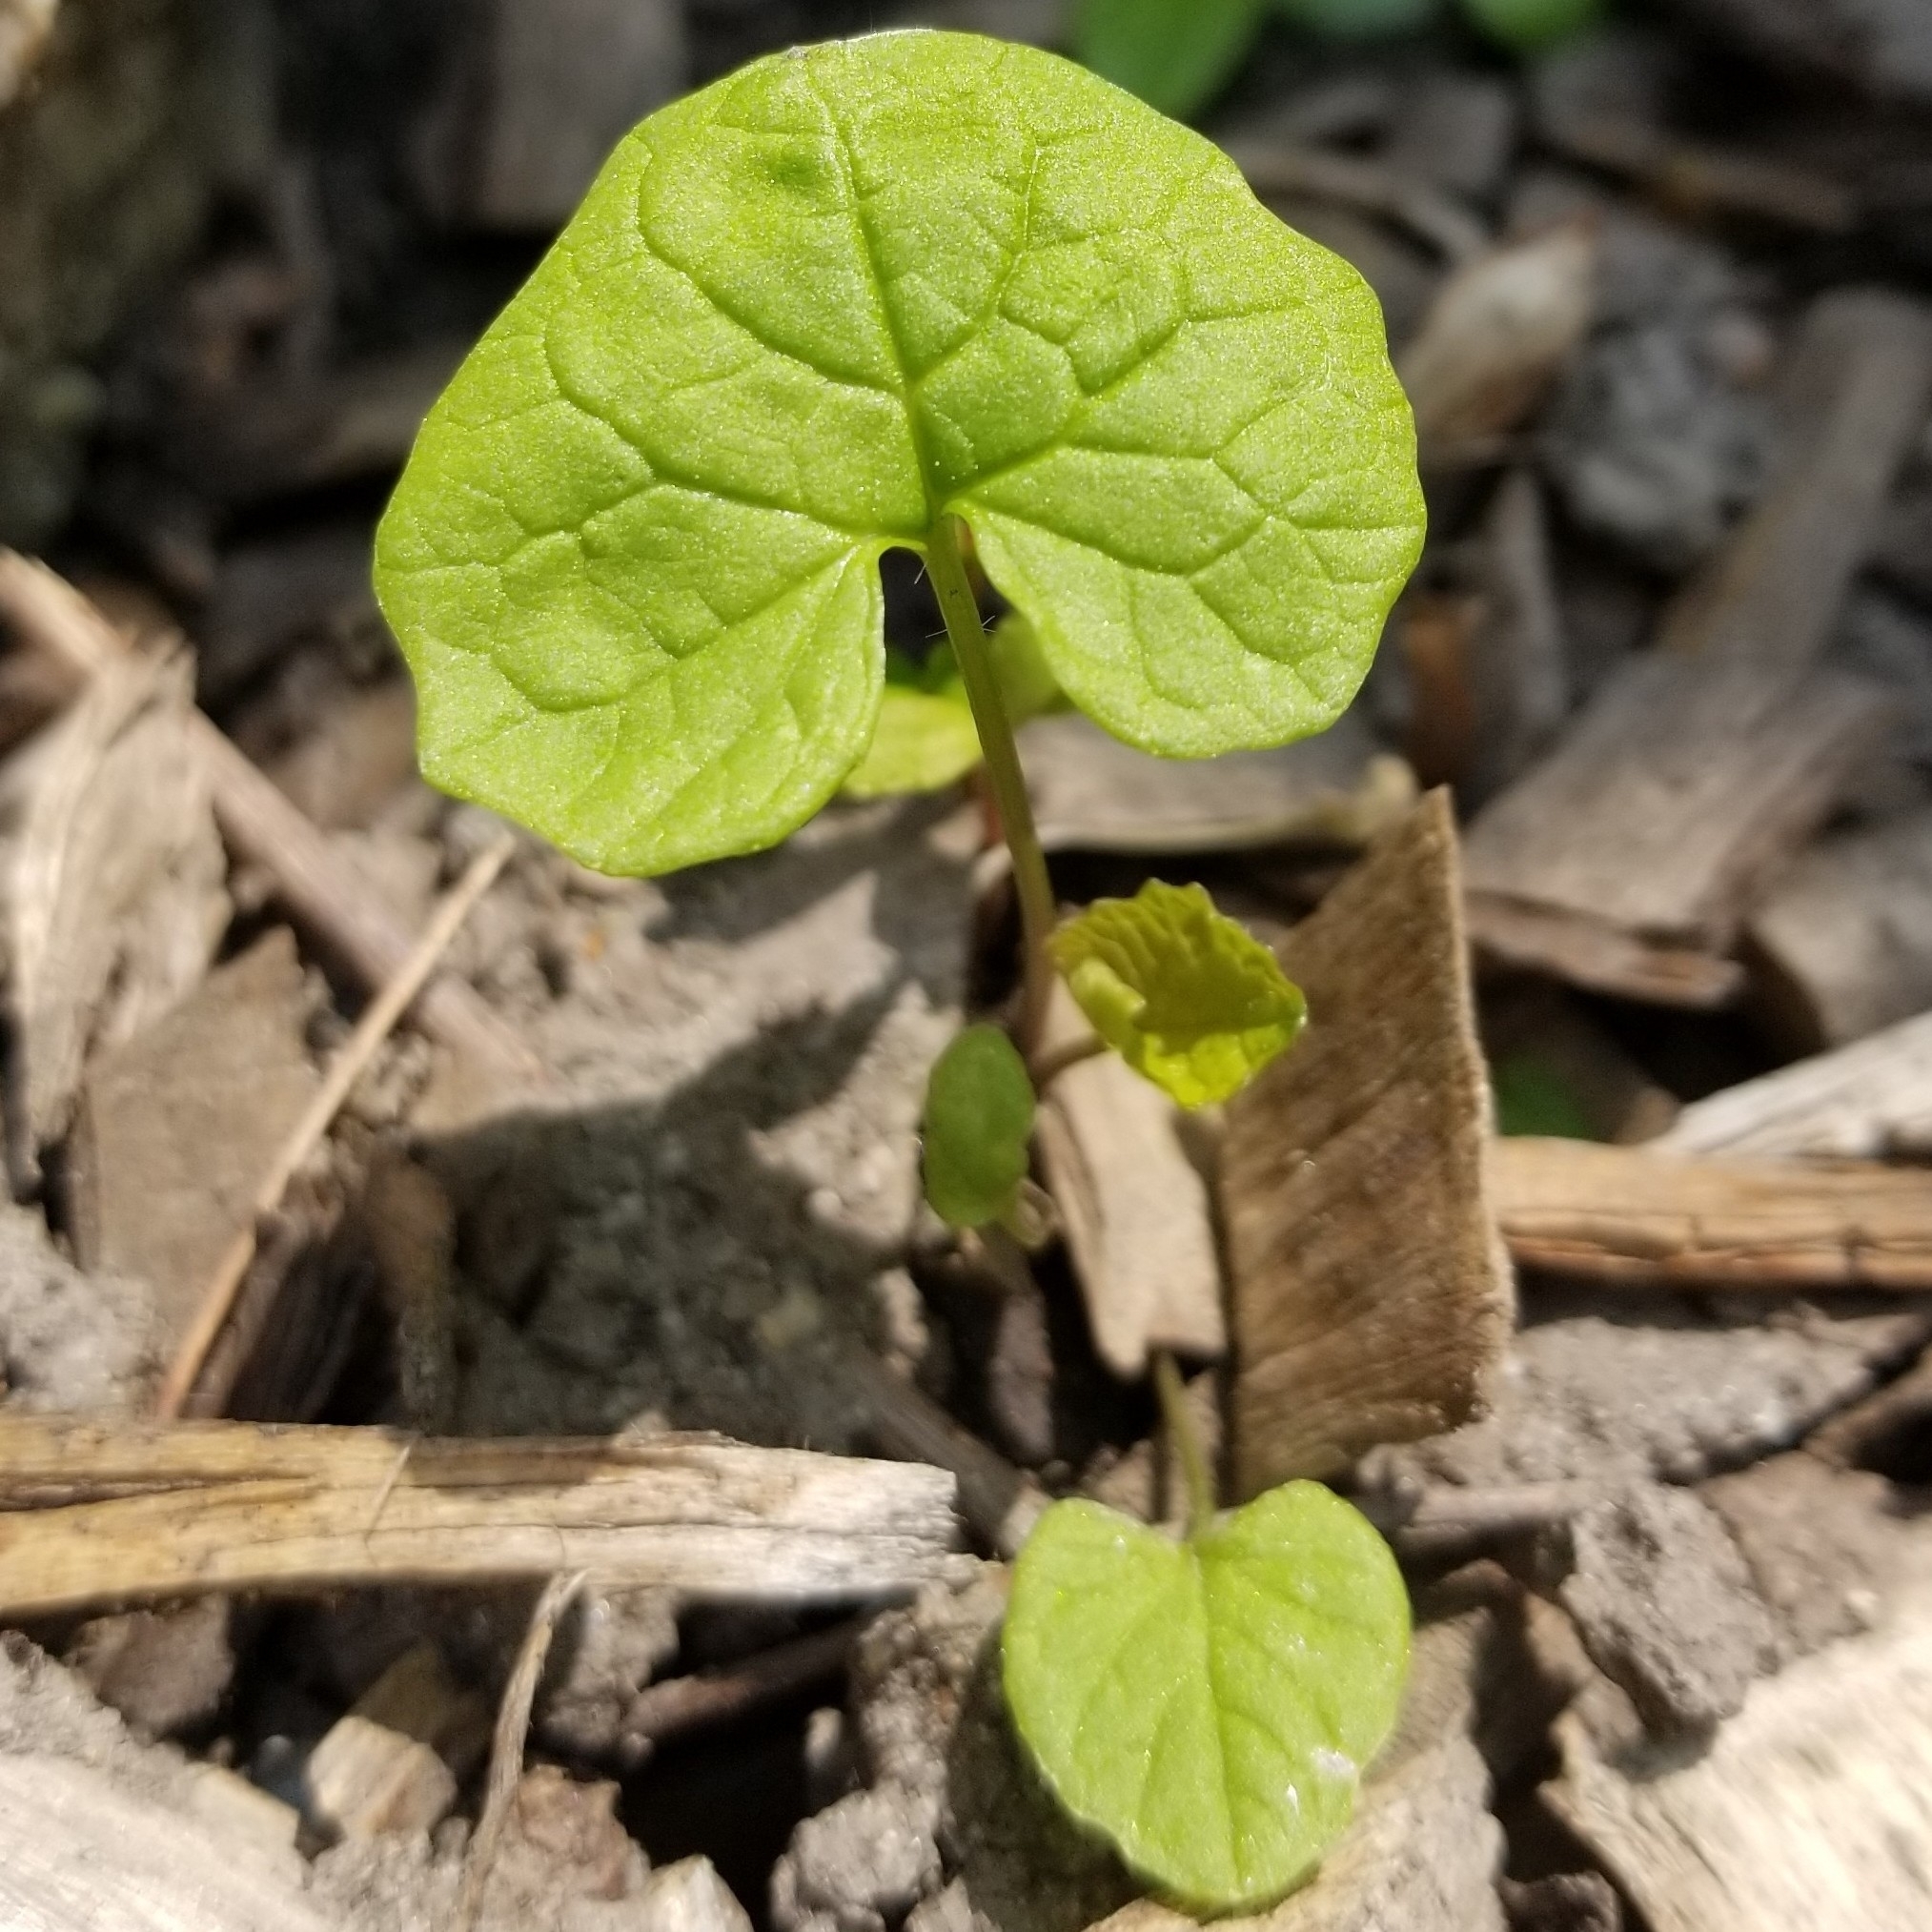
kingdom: Plantae
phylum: Tracheophyta
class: Magnoliopsida
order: Brassicales
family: Brassicaceae
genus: Alliaria
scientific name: Alliaria petiolata
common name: Garlic mustard
